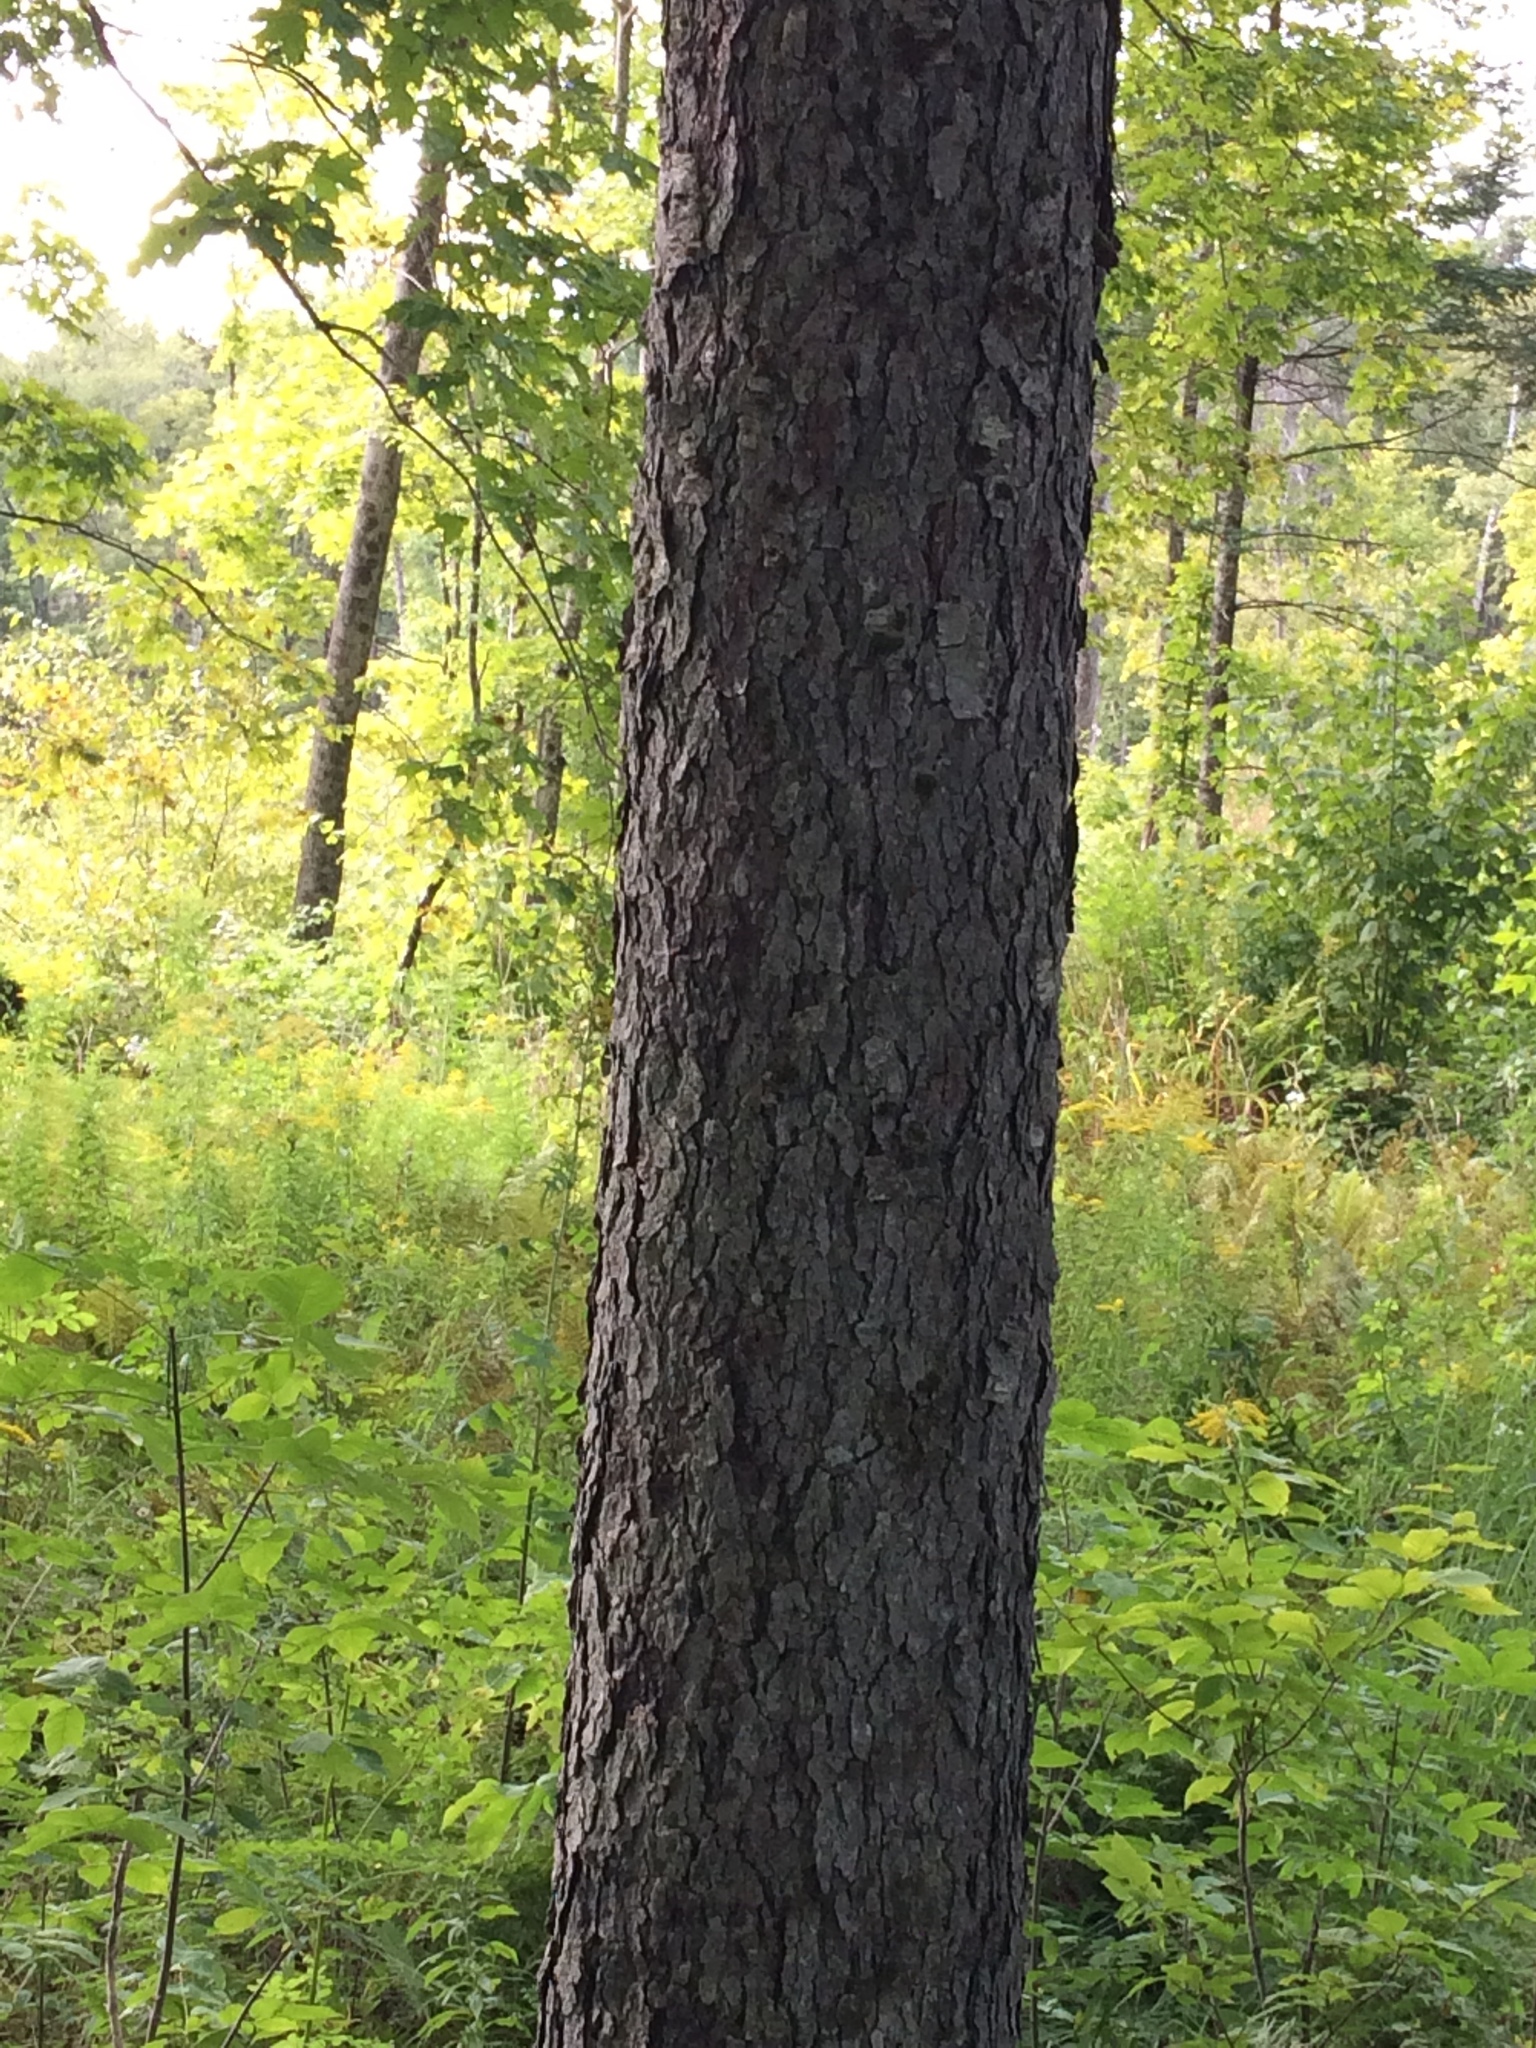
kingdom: Plantae
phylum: Tracheophyta
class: Magnoliopsida
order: Rosales
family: Rosaceae
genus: Prunus
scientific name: Prunus serotina
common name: Black cherry
